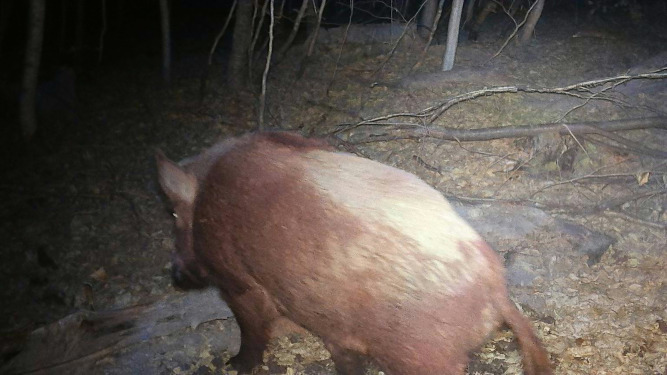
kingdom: Animalia
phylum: Chordata
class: Mammalia
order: Artiodactyla
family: Suidae
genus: Sus
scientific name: Sus scrofa
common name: Wild boar
